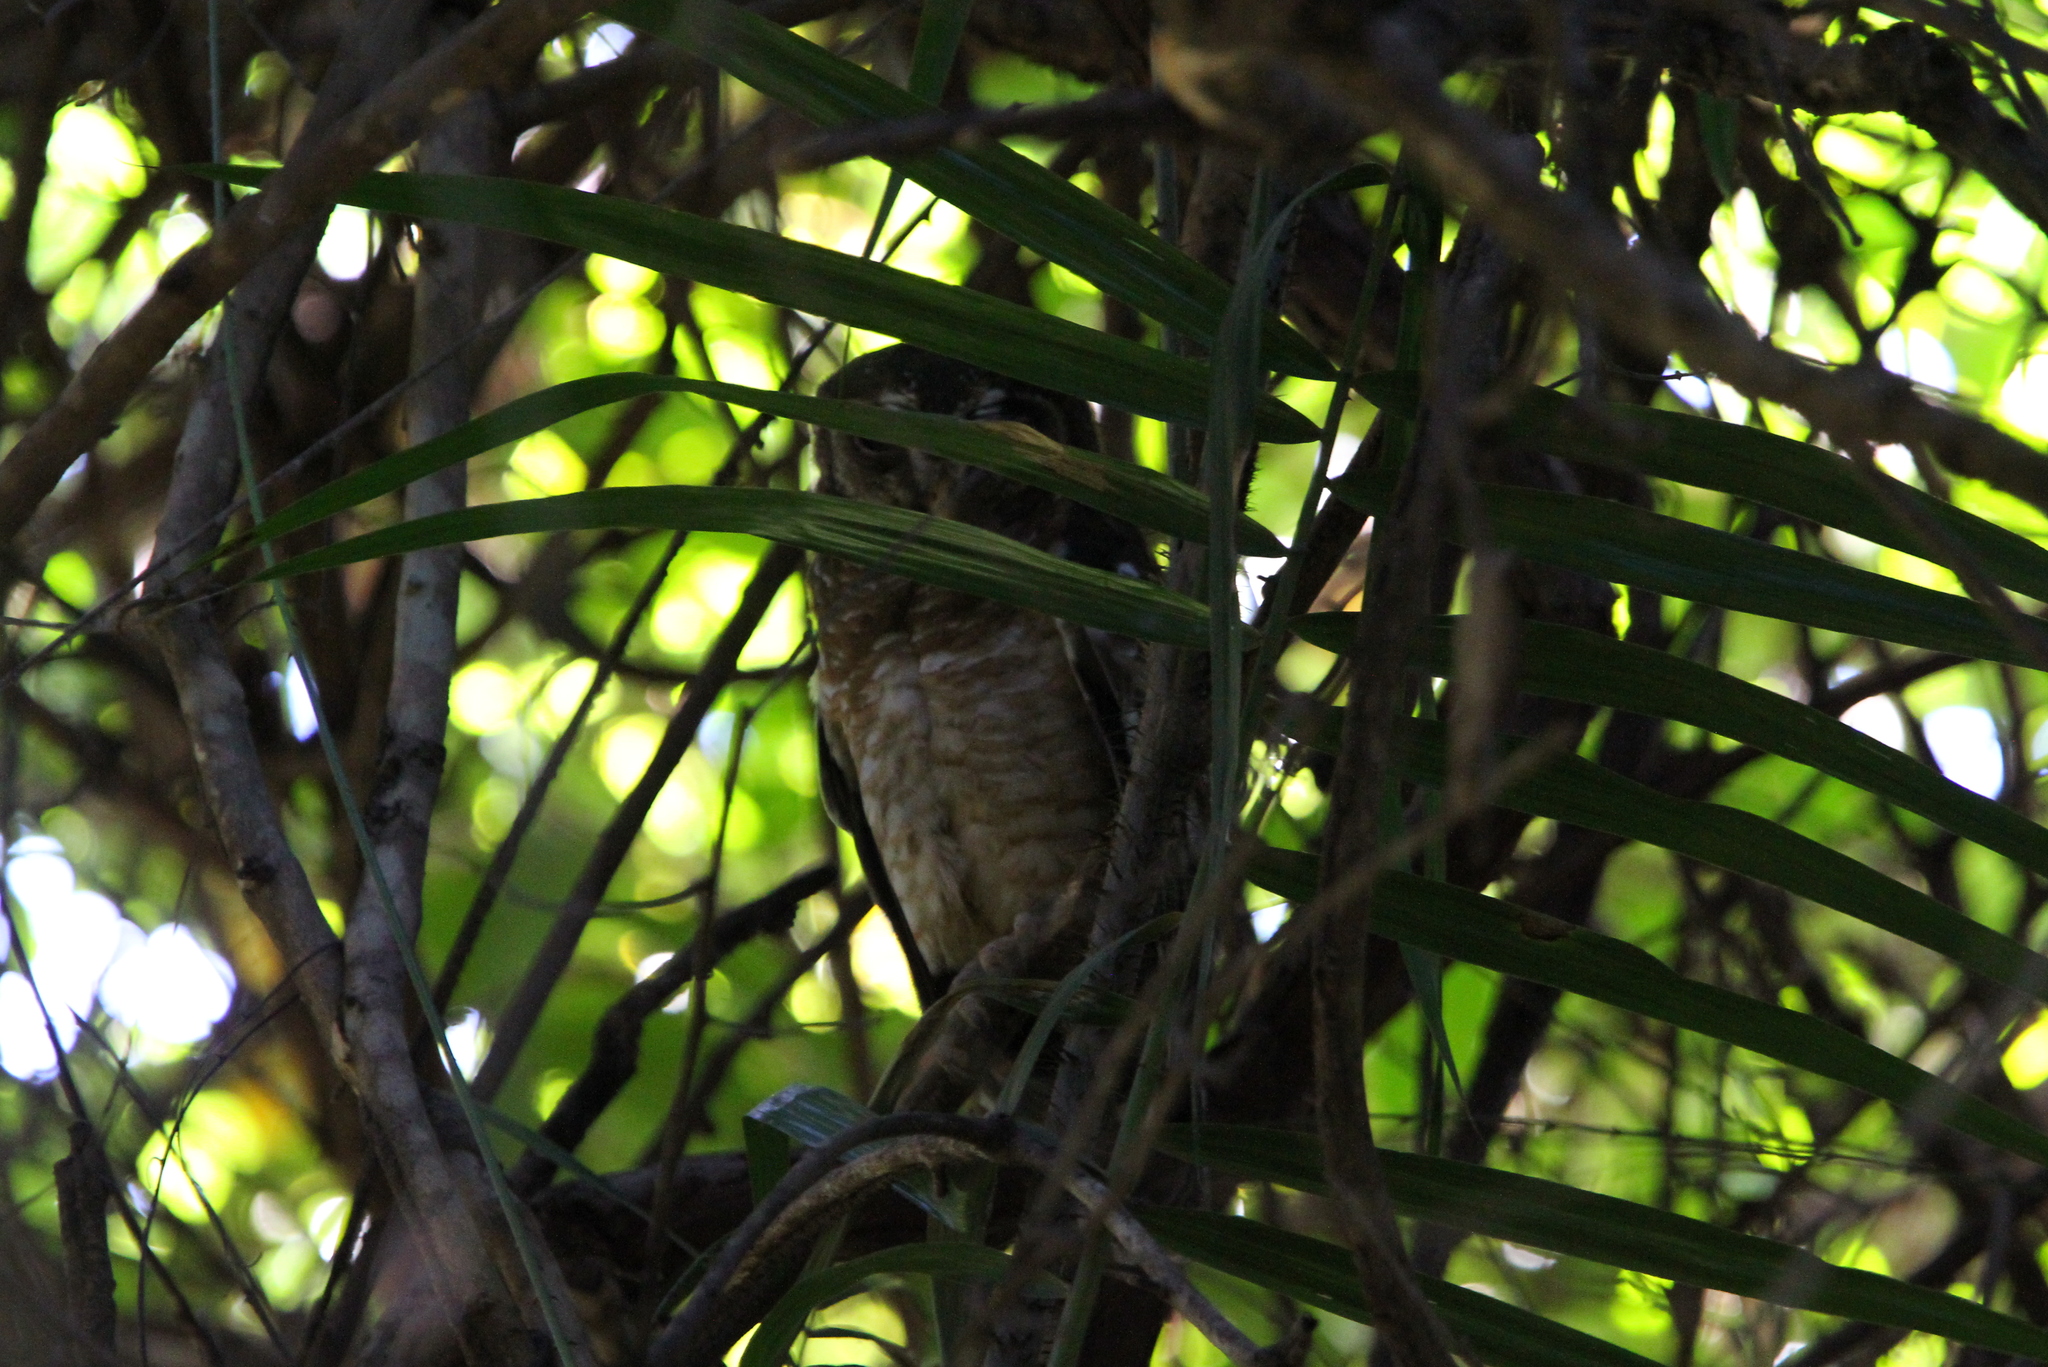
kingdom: Animalia
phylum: Chordata
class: Aves
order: Strigiformes
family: Strigidae
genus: Strix
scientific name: Strix woodfordii
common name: African wood owl
